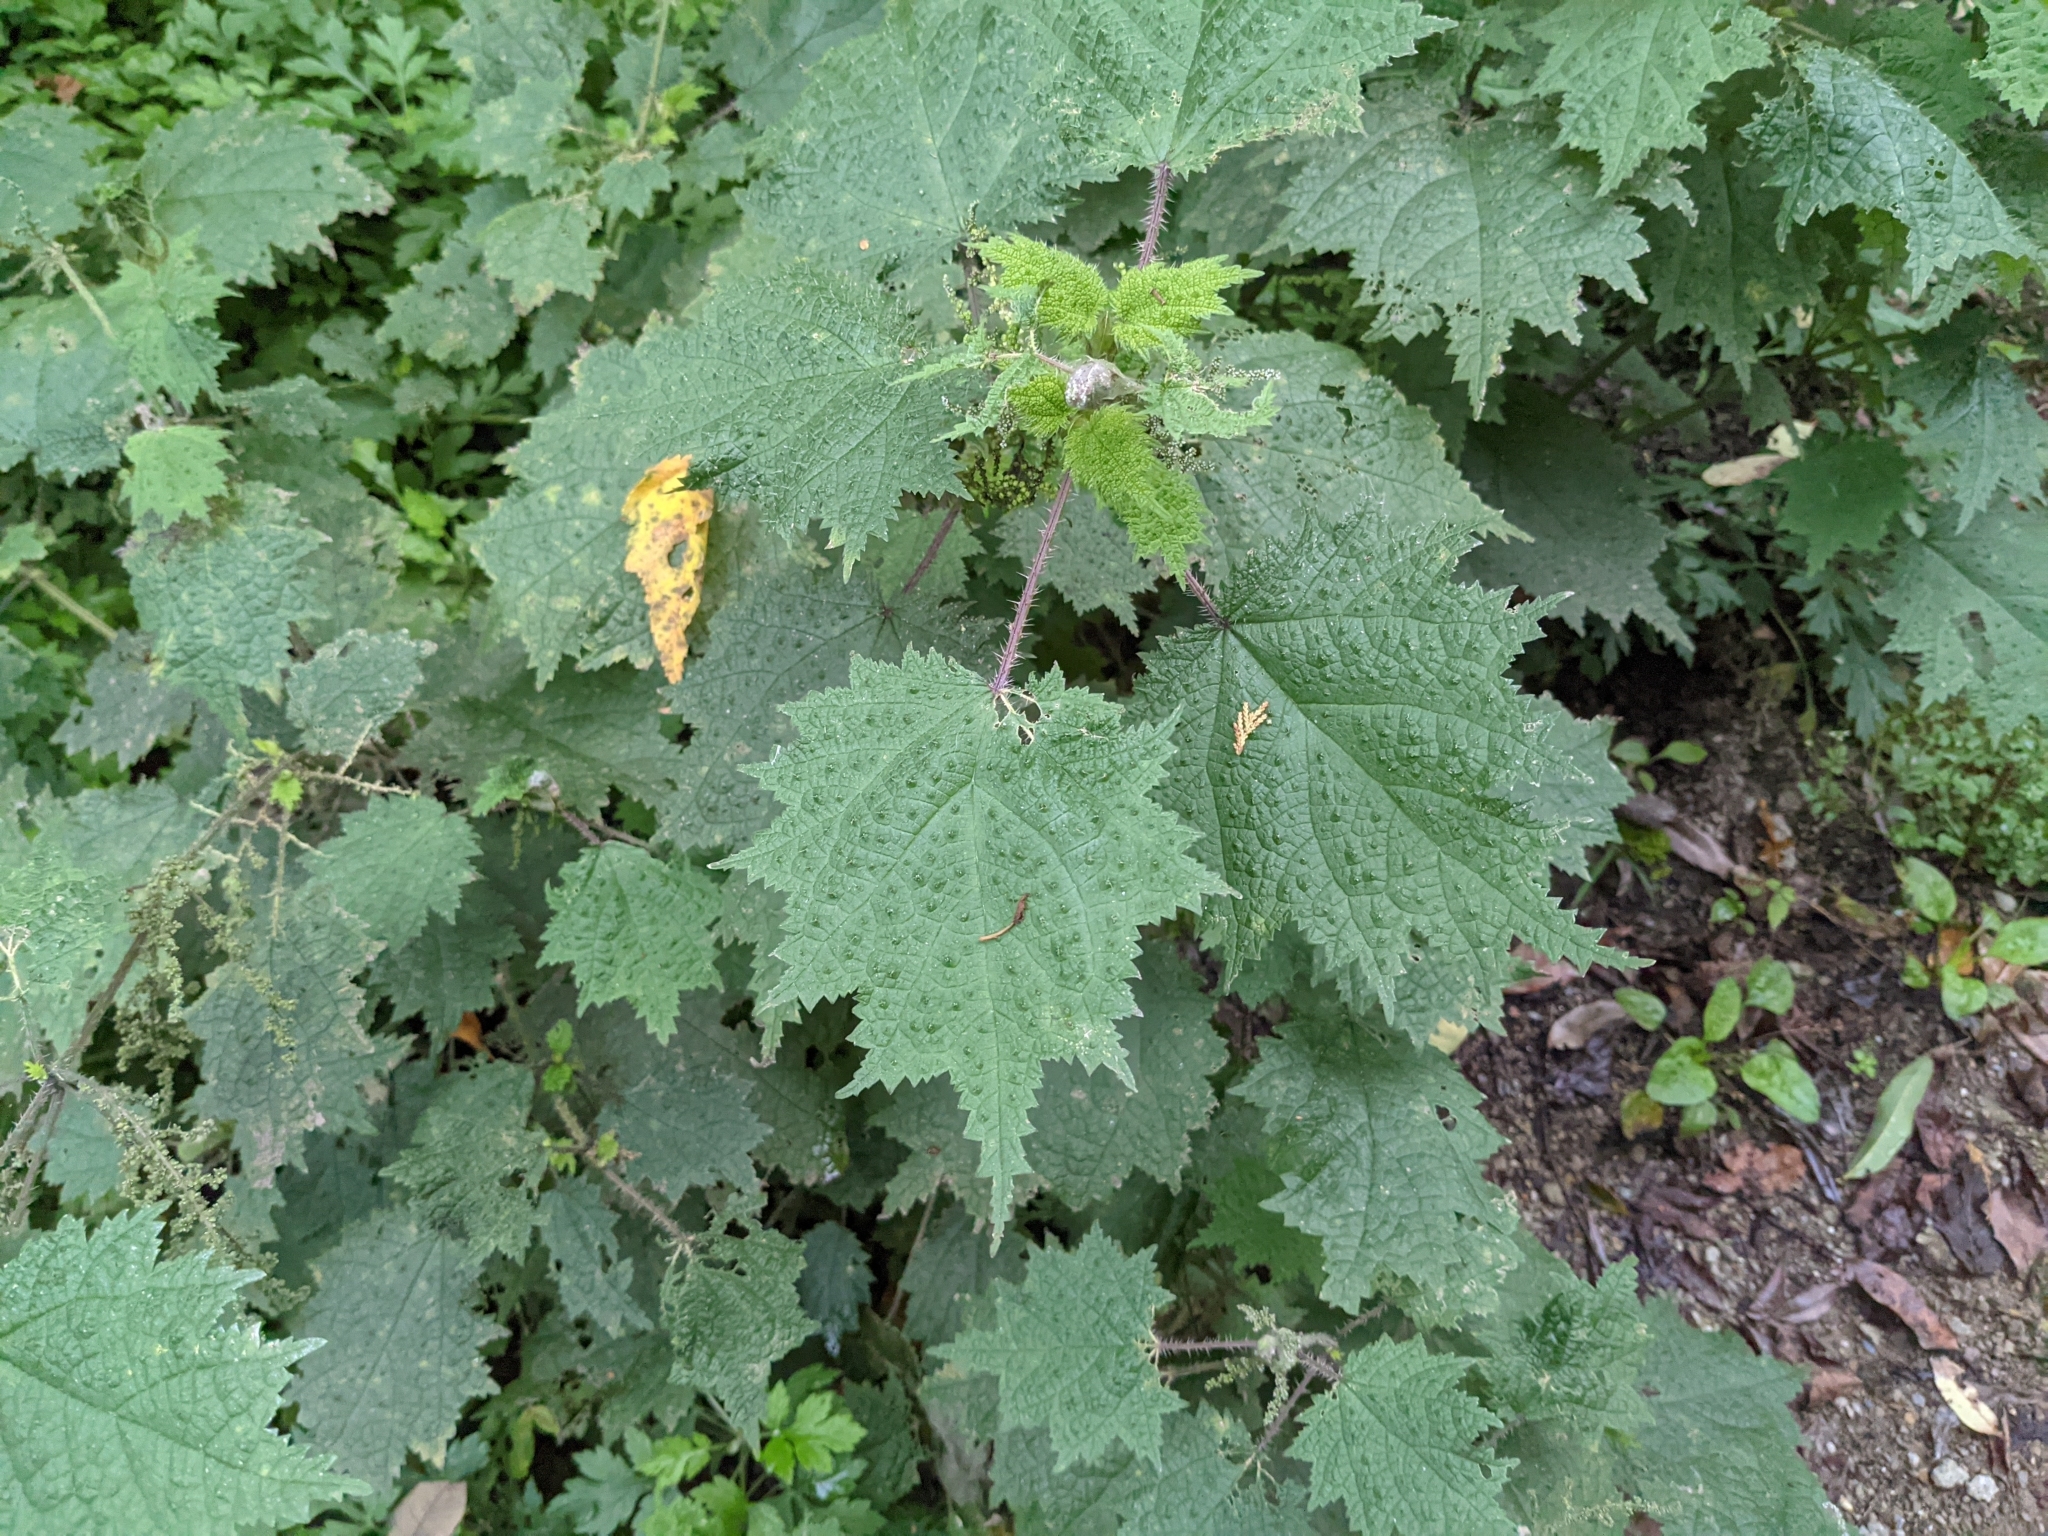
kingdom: Plantae
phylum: Tracheophyta
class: Magnoliopsida
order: Rosales
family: Urticaceae
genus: Urtica
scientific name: Urtica thunbergiana
